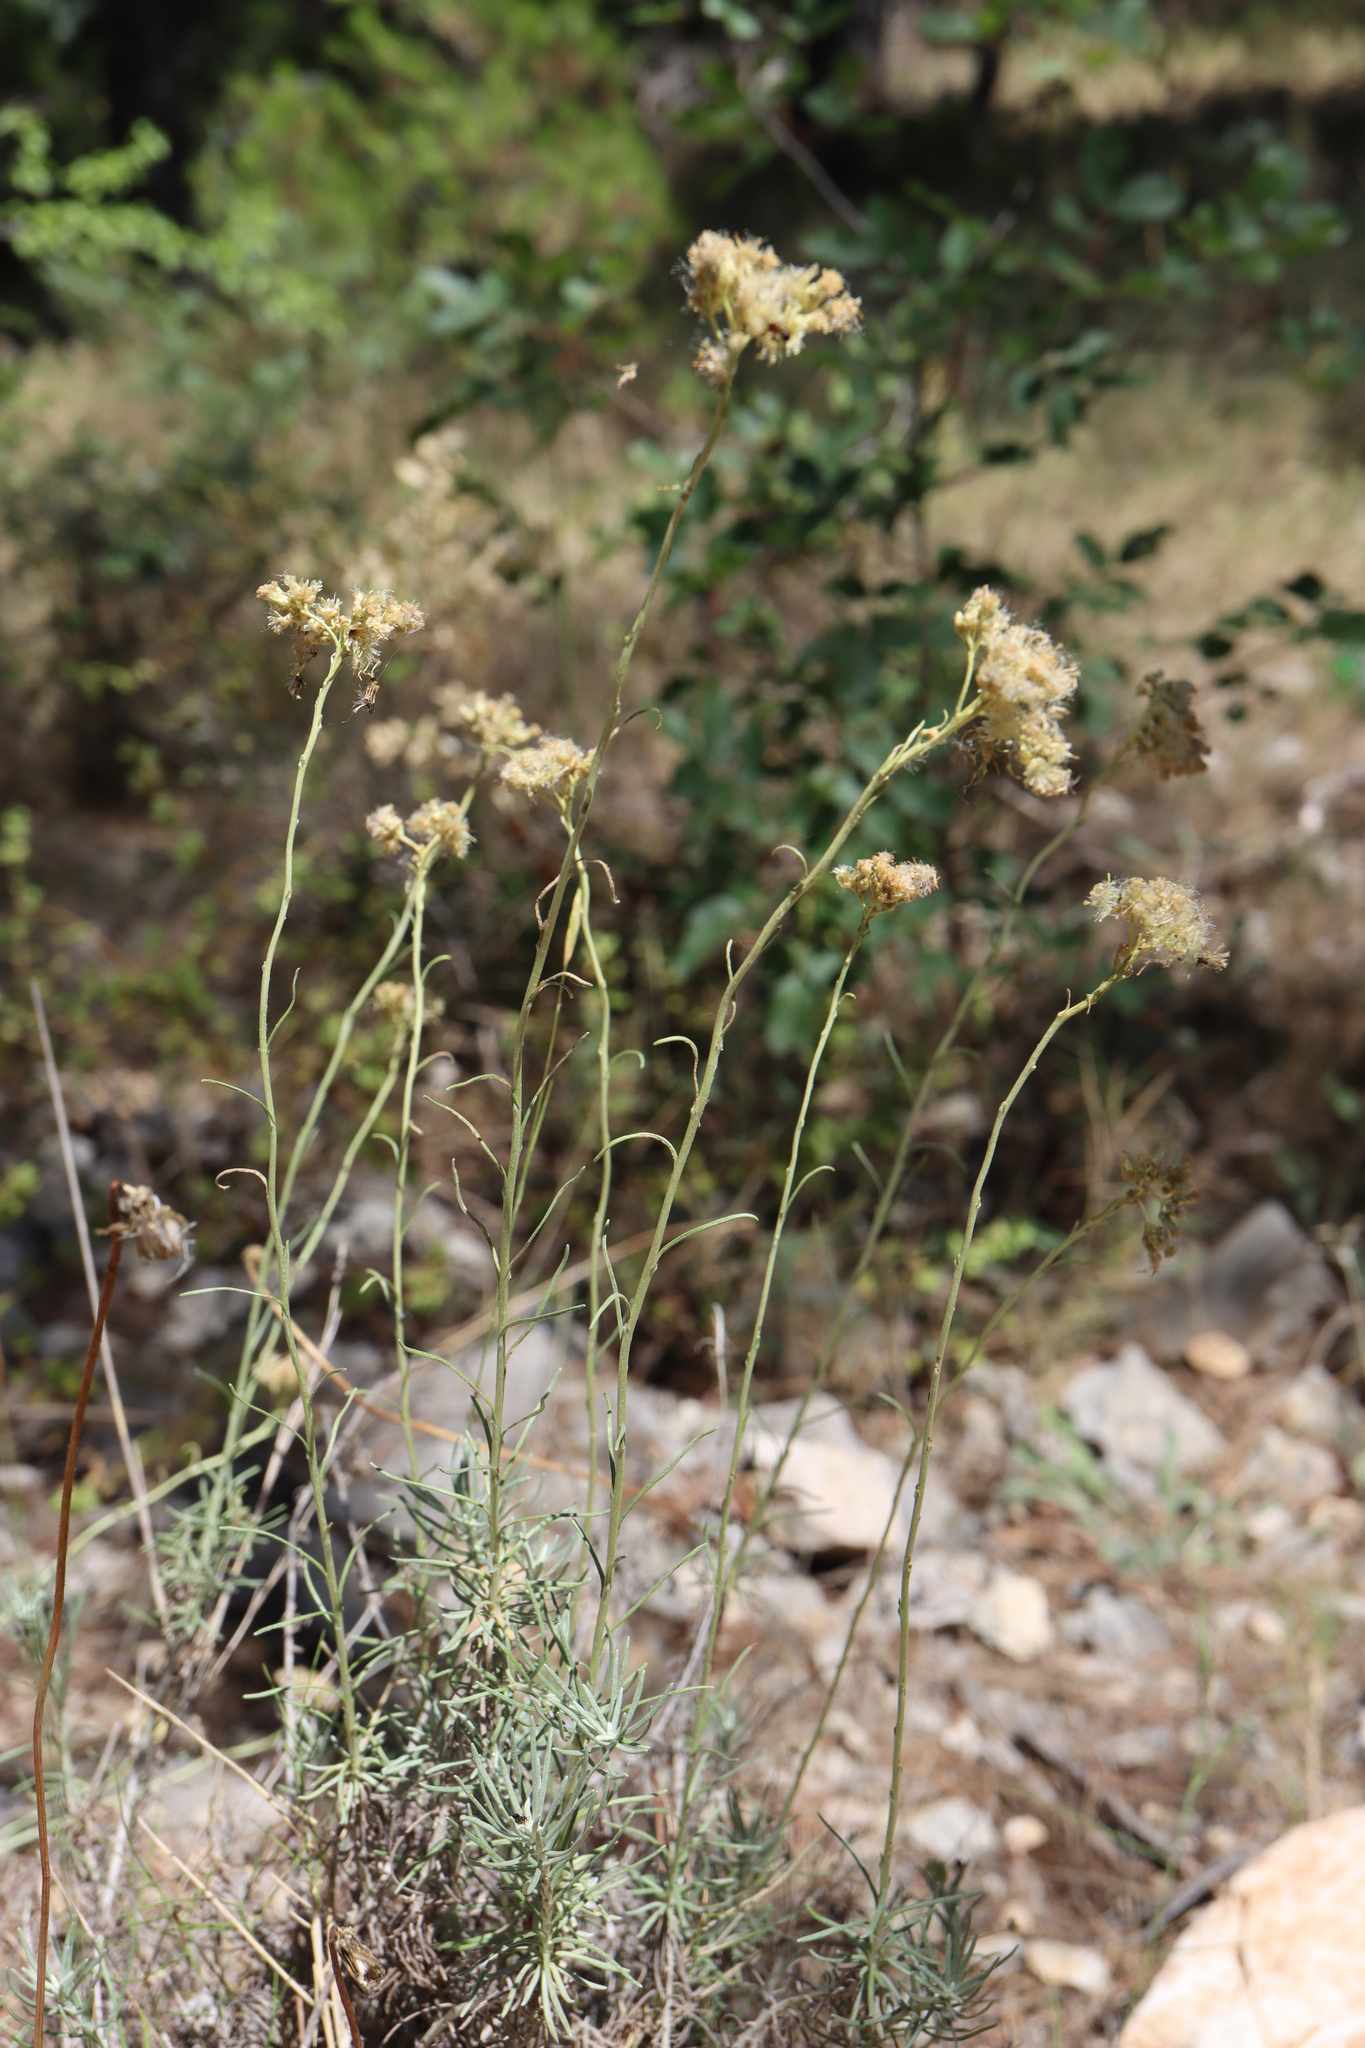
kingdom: Plantae
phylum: Tracheophyta
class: Magnoliopsida
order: Asterales
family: Asteraceae
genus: Helichrysum
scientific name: Helichrysum italicum
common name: Curryplant
